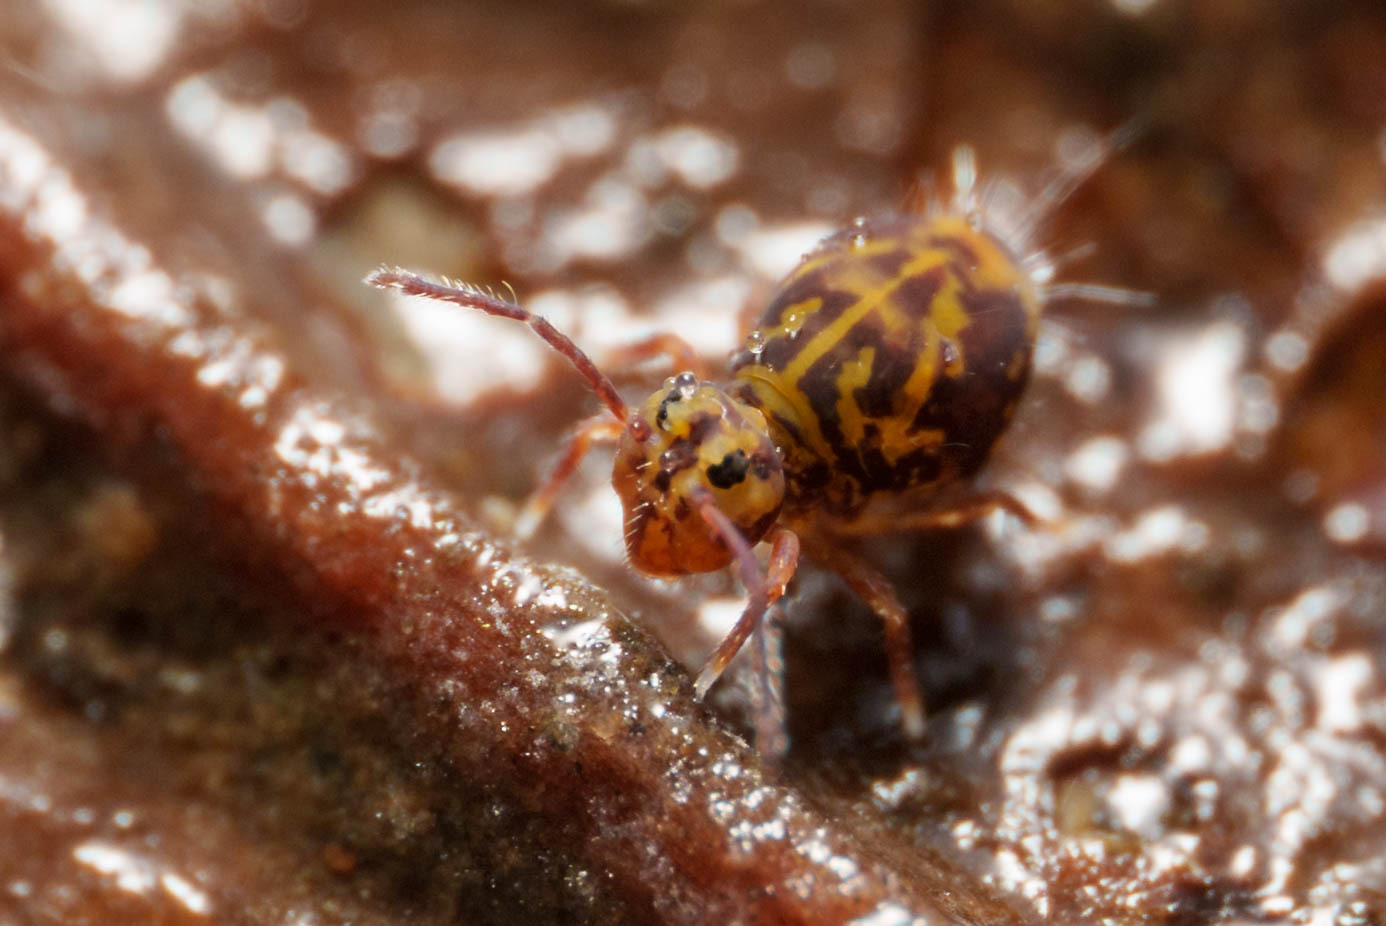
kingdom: Animalia
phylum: Arthropoda
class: Collembola
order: Symphypleona
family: Dicyrtomidae
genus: Dicyrtomina
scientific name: Dicyrtomina minuta
